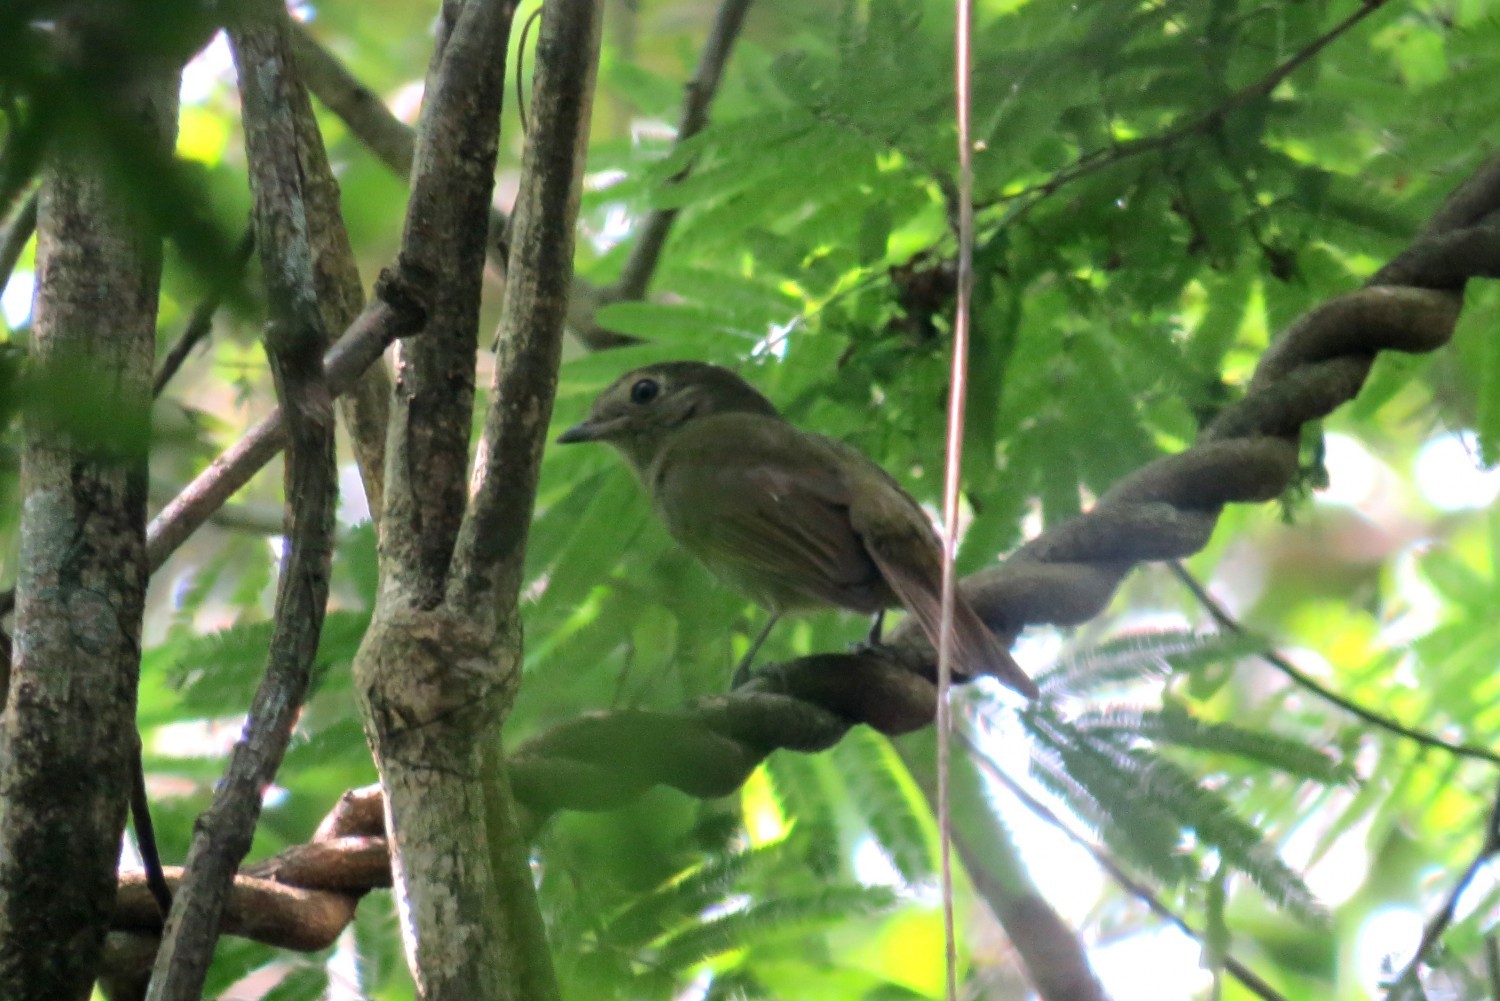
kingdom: Animalia
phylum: Chordata
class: Aves
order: Passeriformes
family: Cotingidae
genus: Schiffornis
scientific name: Schiffornis virescens
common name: Greenish schiffornis
